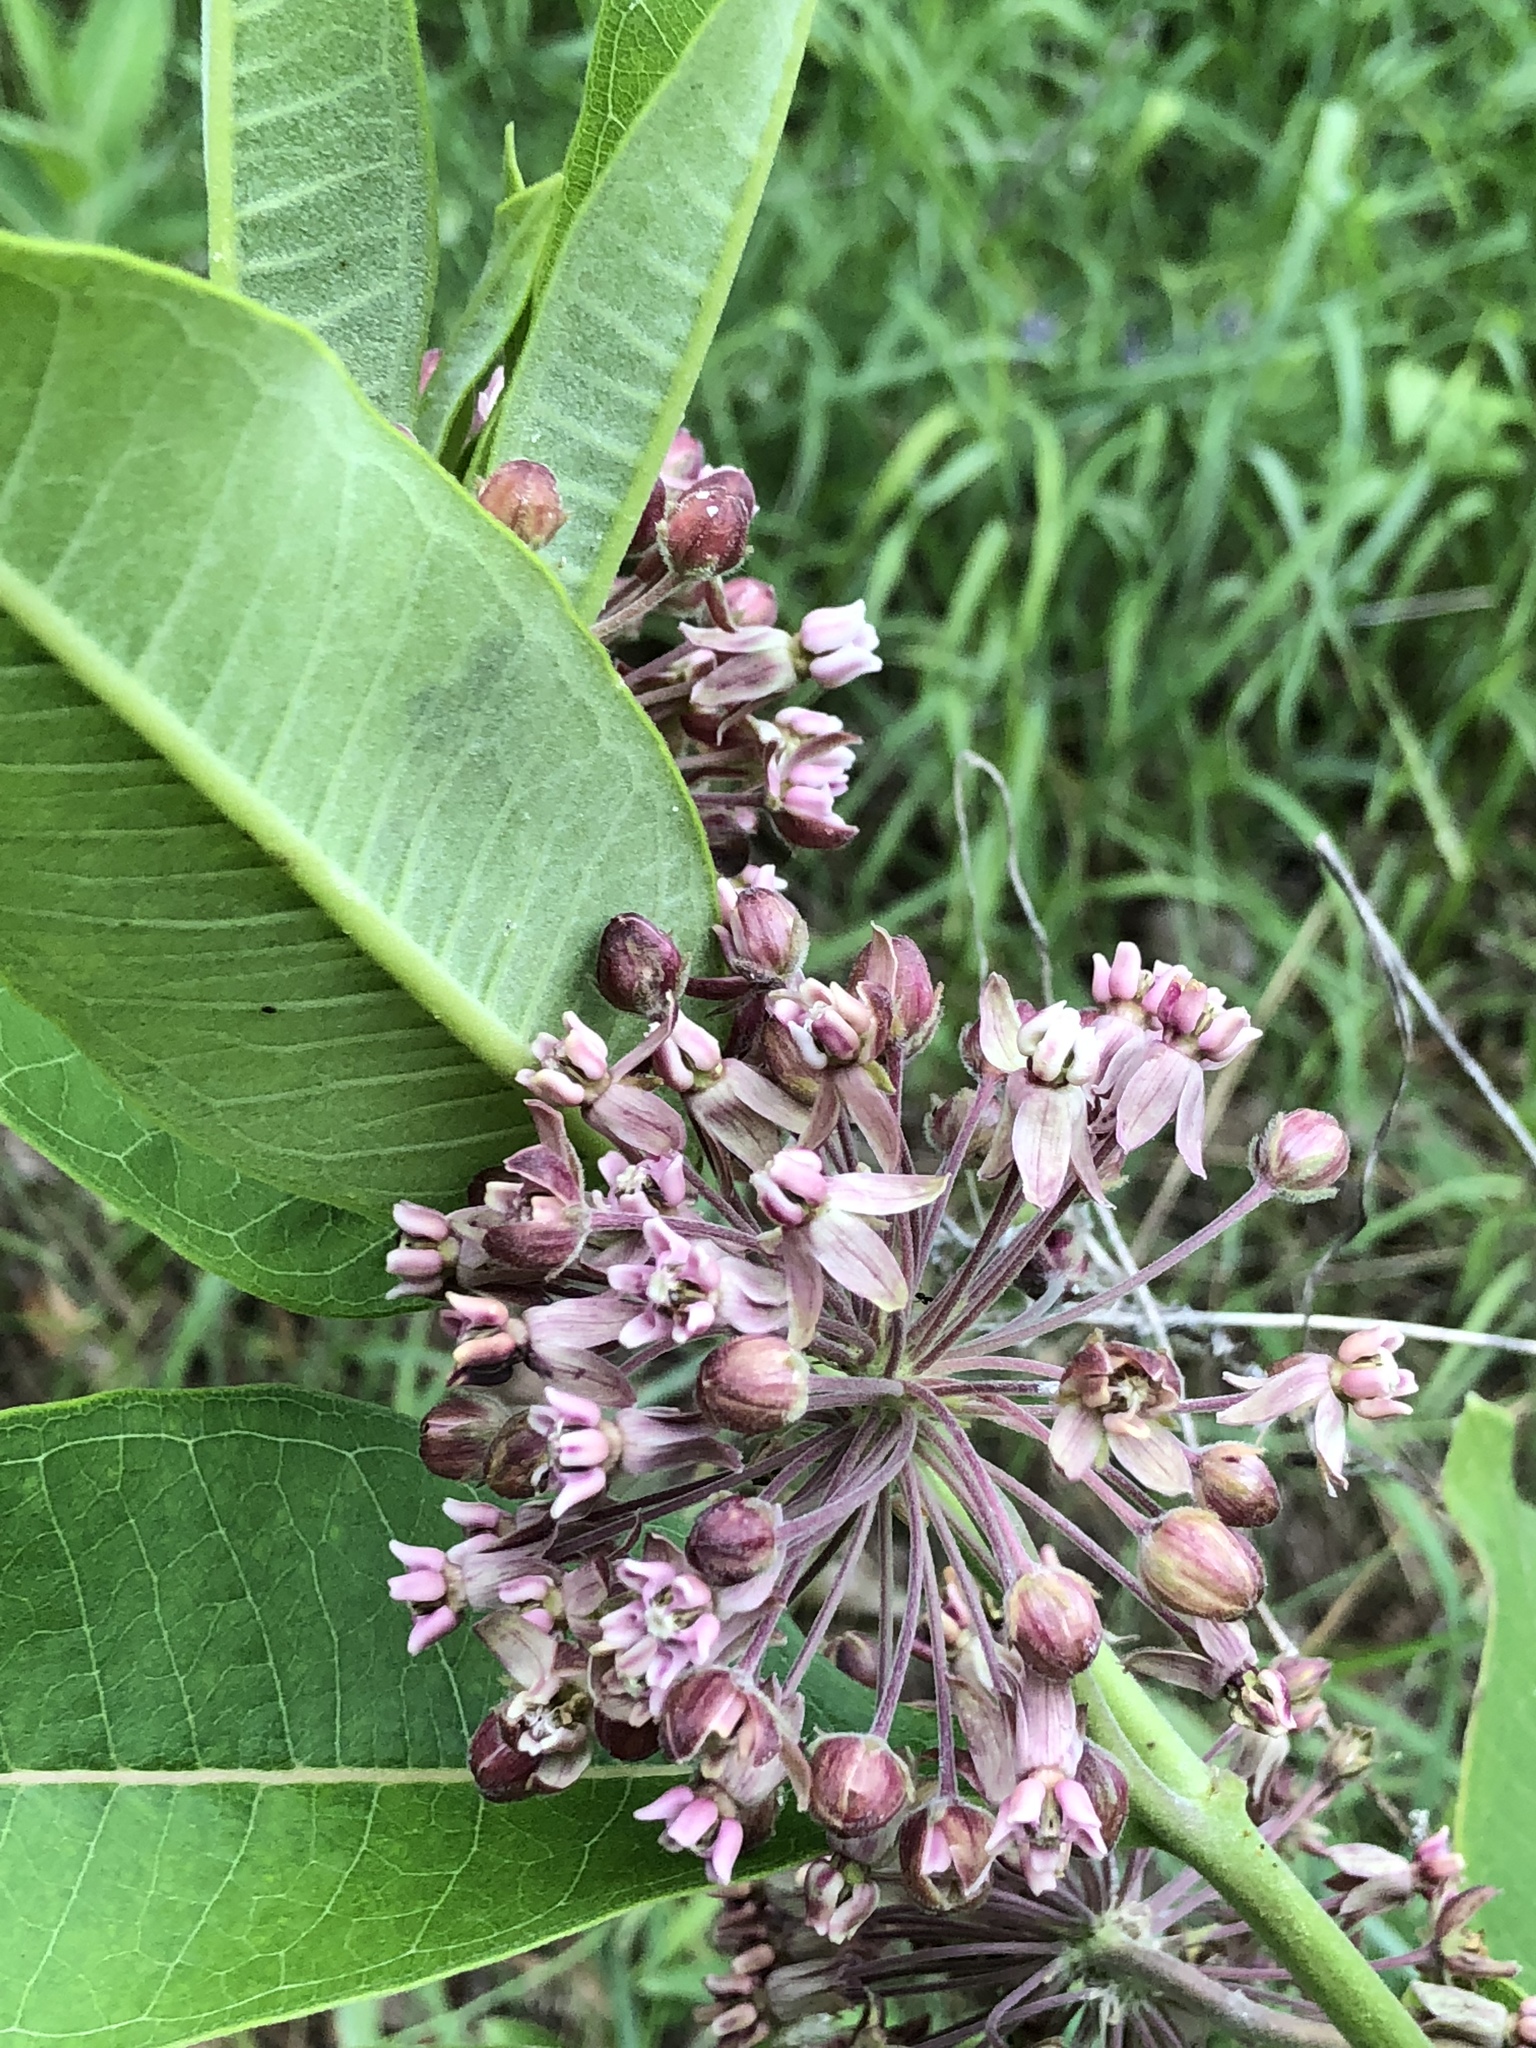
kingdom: Plantae
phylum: Tracheophyta
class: Magnoliopsida
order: Gentianales
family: Apocynaceae
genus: Asclepias
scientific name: Asclepias syriaca
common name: Common milkweed
